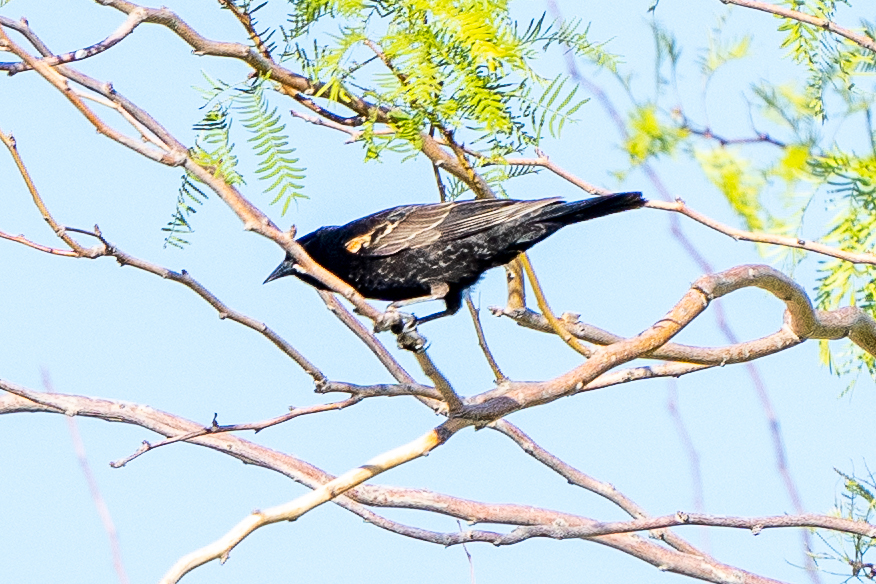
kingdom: Animalia
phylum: Chordata
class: Aves
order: Passeriformes
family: Icteridae
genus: Agelaius
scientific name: Agelaius phoeniceus
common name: Red-winged blackbird
